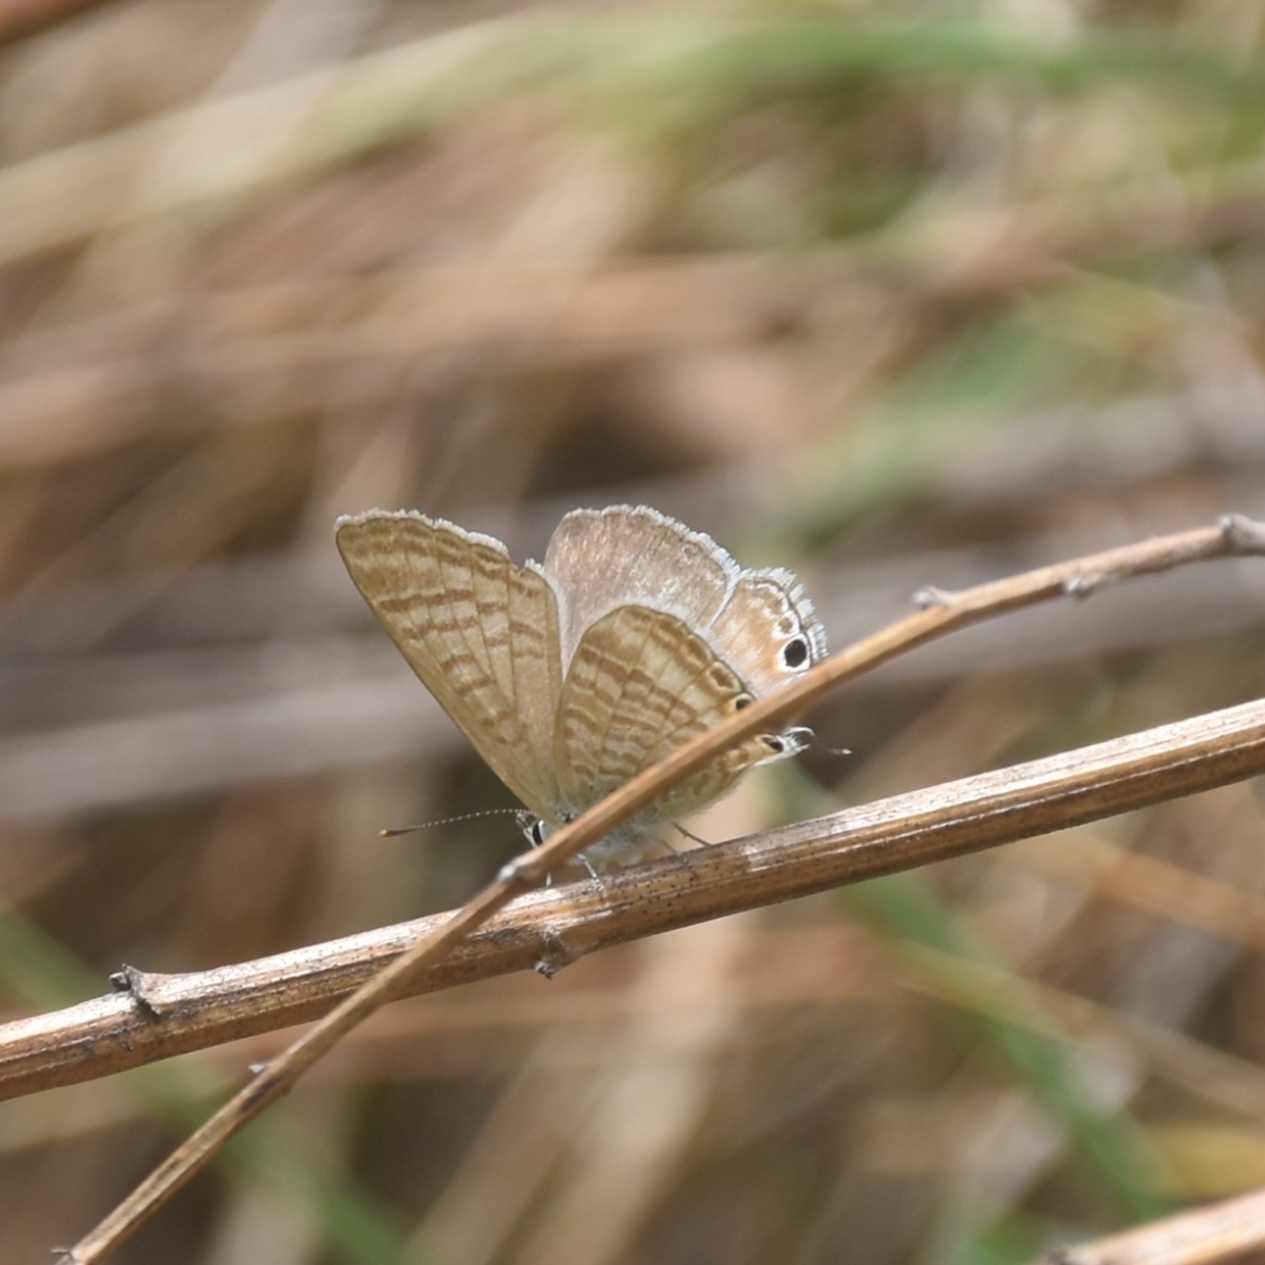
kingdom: Animalia
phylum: Arthropoda
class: Insecta
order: Lepidoptera
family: Lycaenidae
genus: Lampides
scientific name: Lampides boeticus
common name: Long-tailed blue
